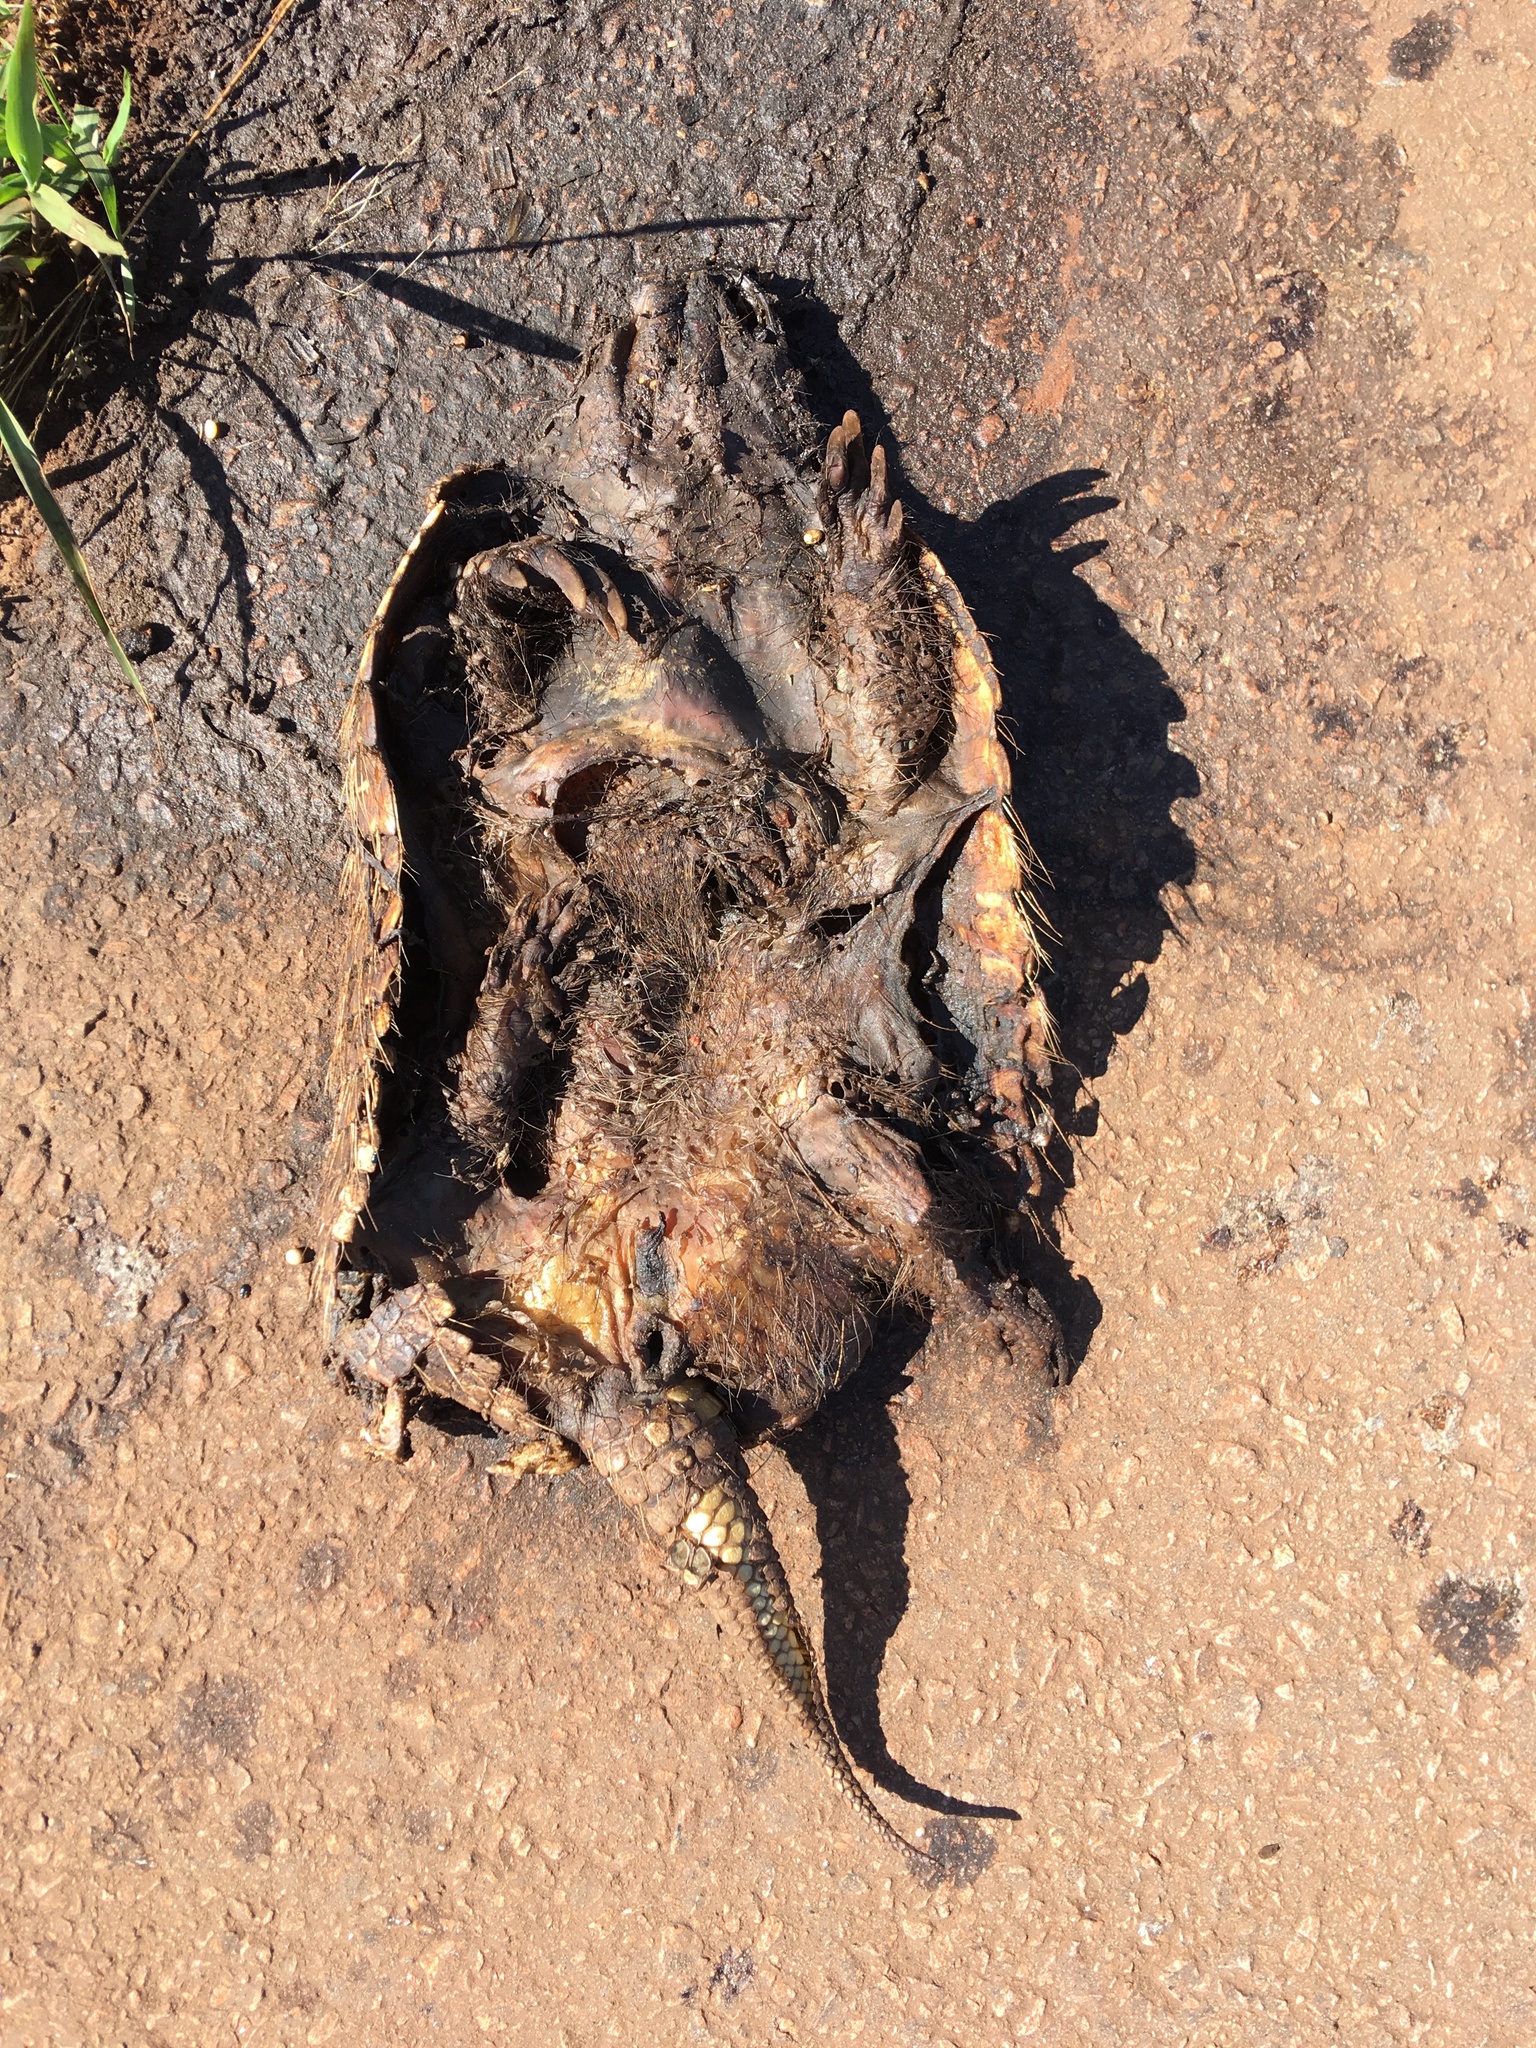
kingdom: Animalia
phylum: Chordata
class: Mammalia
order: Cingulata
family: Dasypodidae
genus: Euphractus
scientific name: Euphractus sexcinctus
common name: Six-banded armadillo
